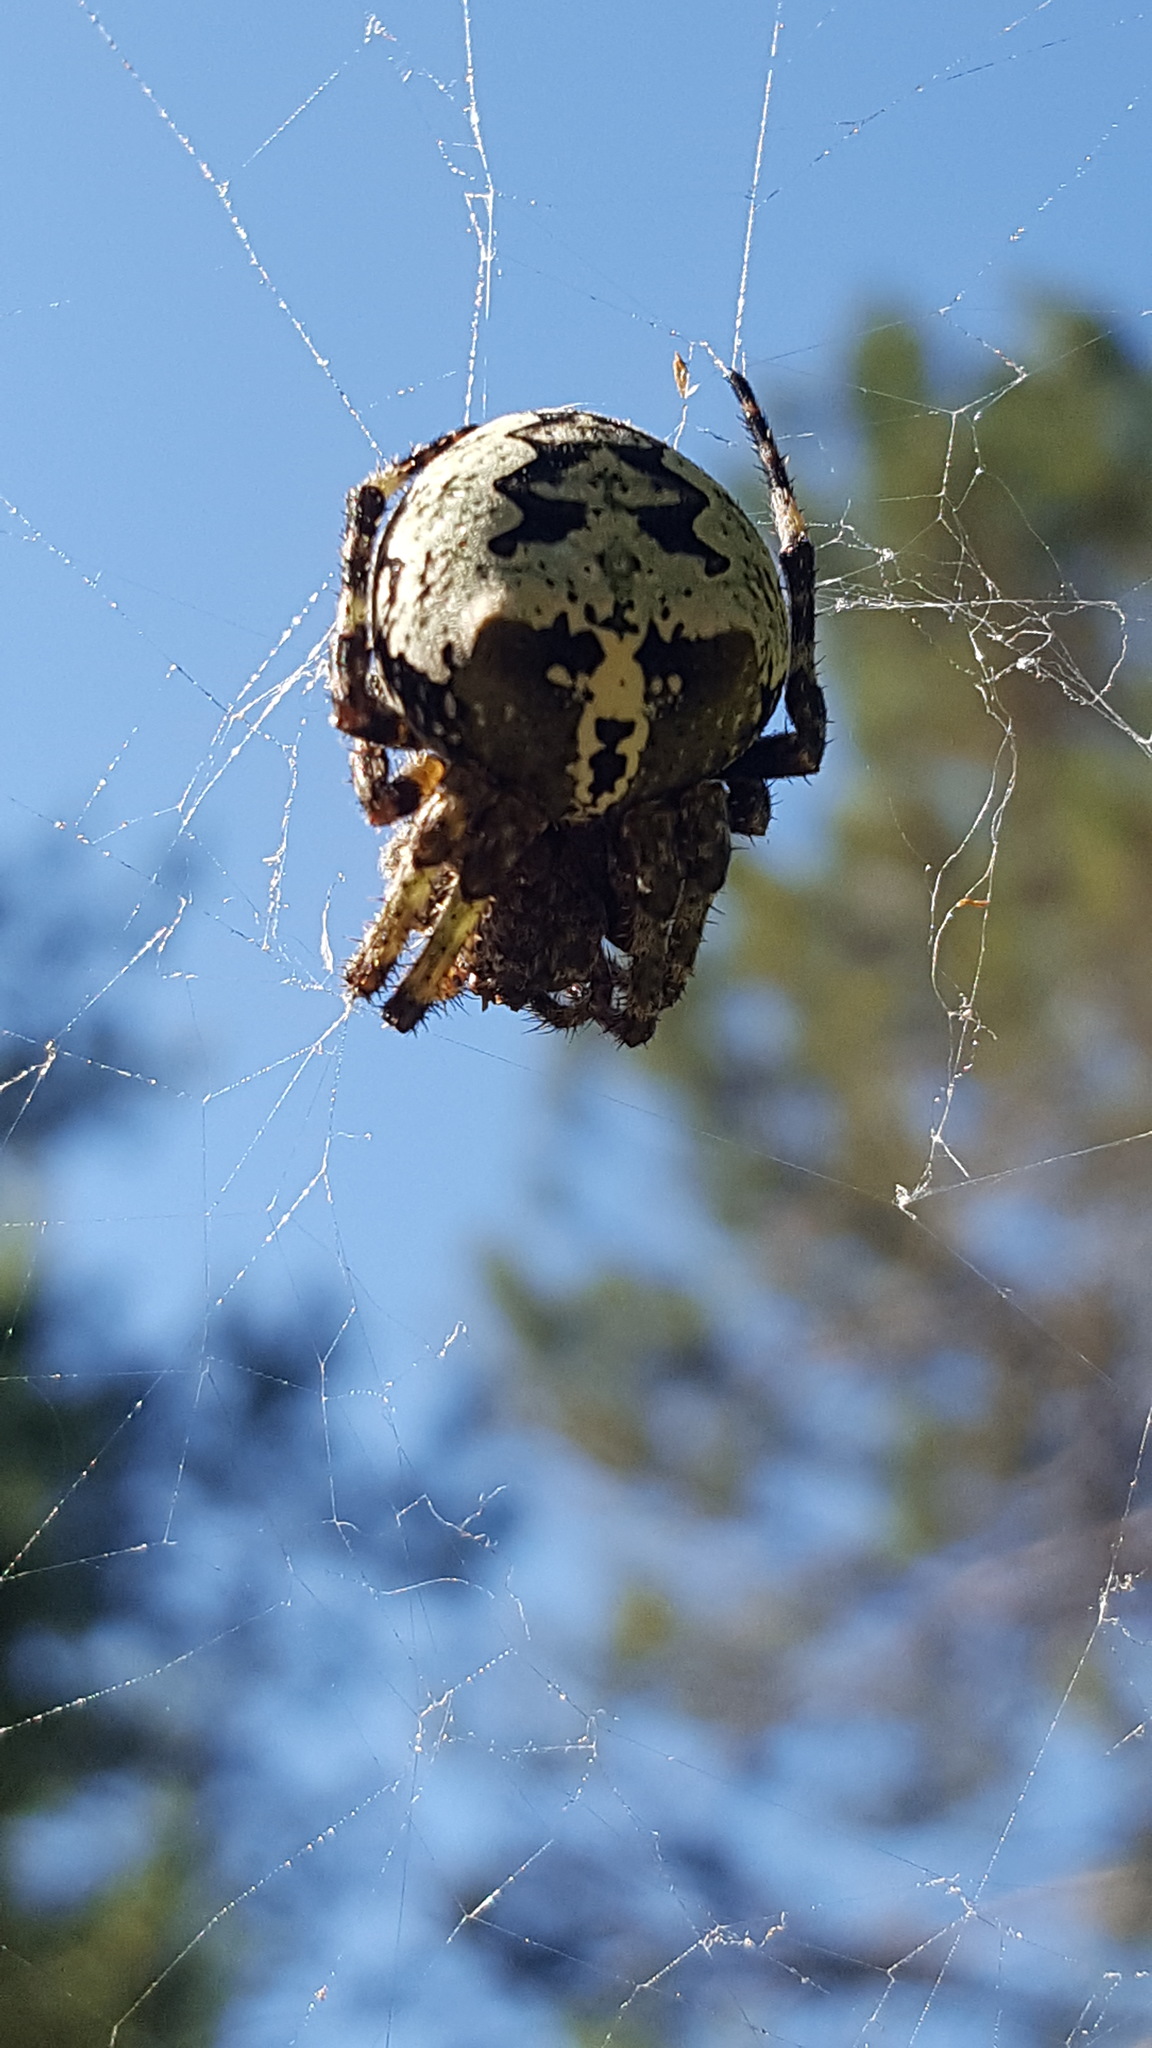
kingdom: Animalia
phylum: Arthropoda
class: Arachnida
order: Araneae
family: Araneidae
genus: Araneus
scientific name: Araneus bicentenarius
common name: Giant lichen orbweaver
